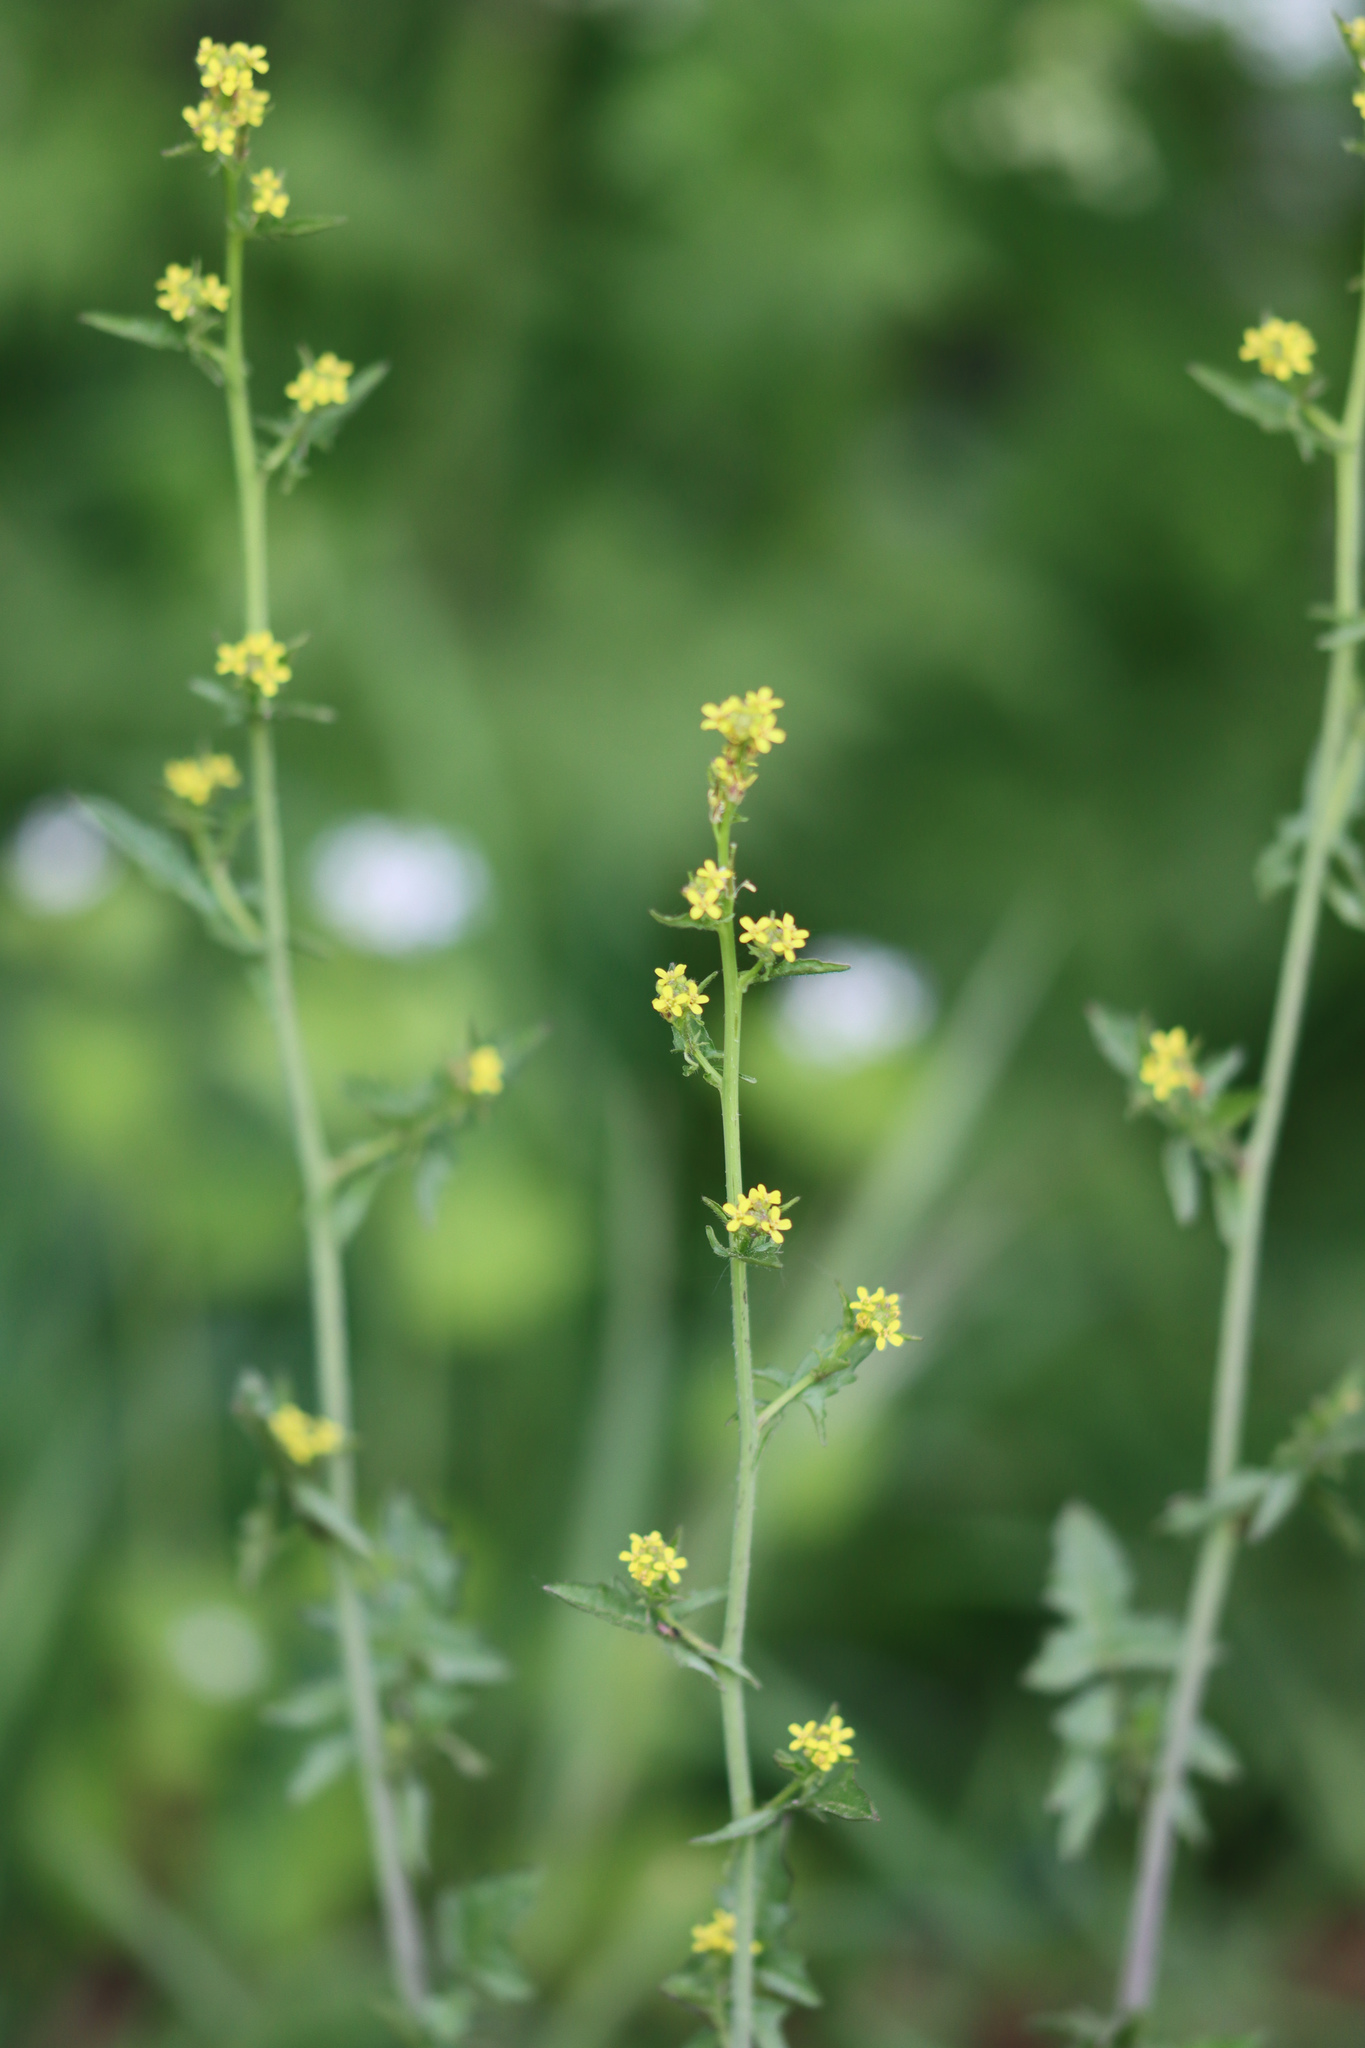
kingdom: Plantae
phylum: Tracheophyta
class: Magnoliopsida
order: Brassicales
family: Brassicaceae
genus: Sisymbrium
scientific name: Sisymbrium officinale
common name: Hedge mustard
